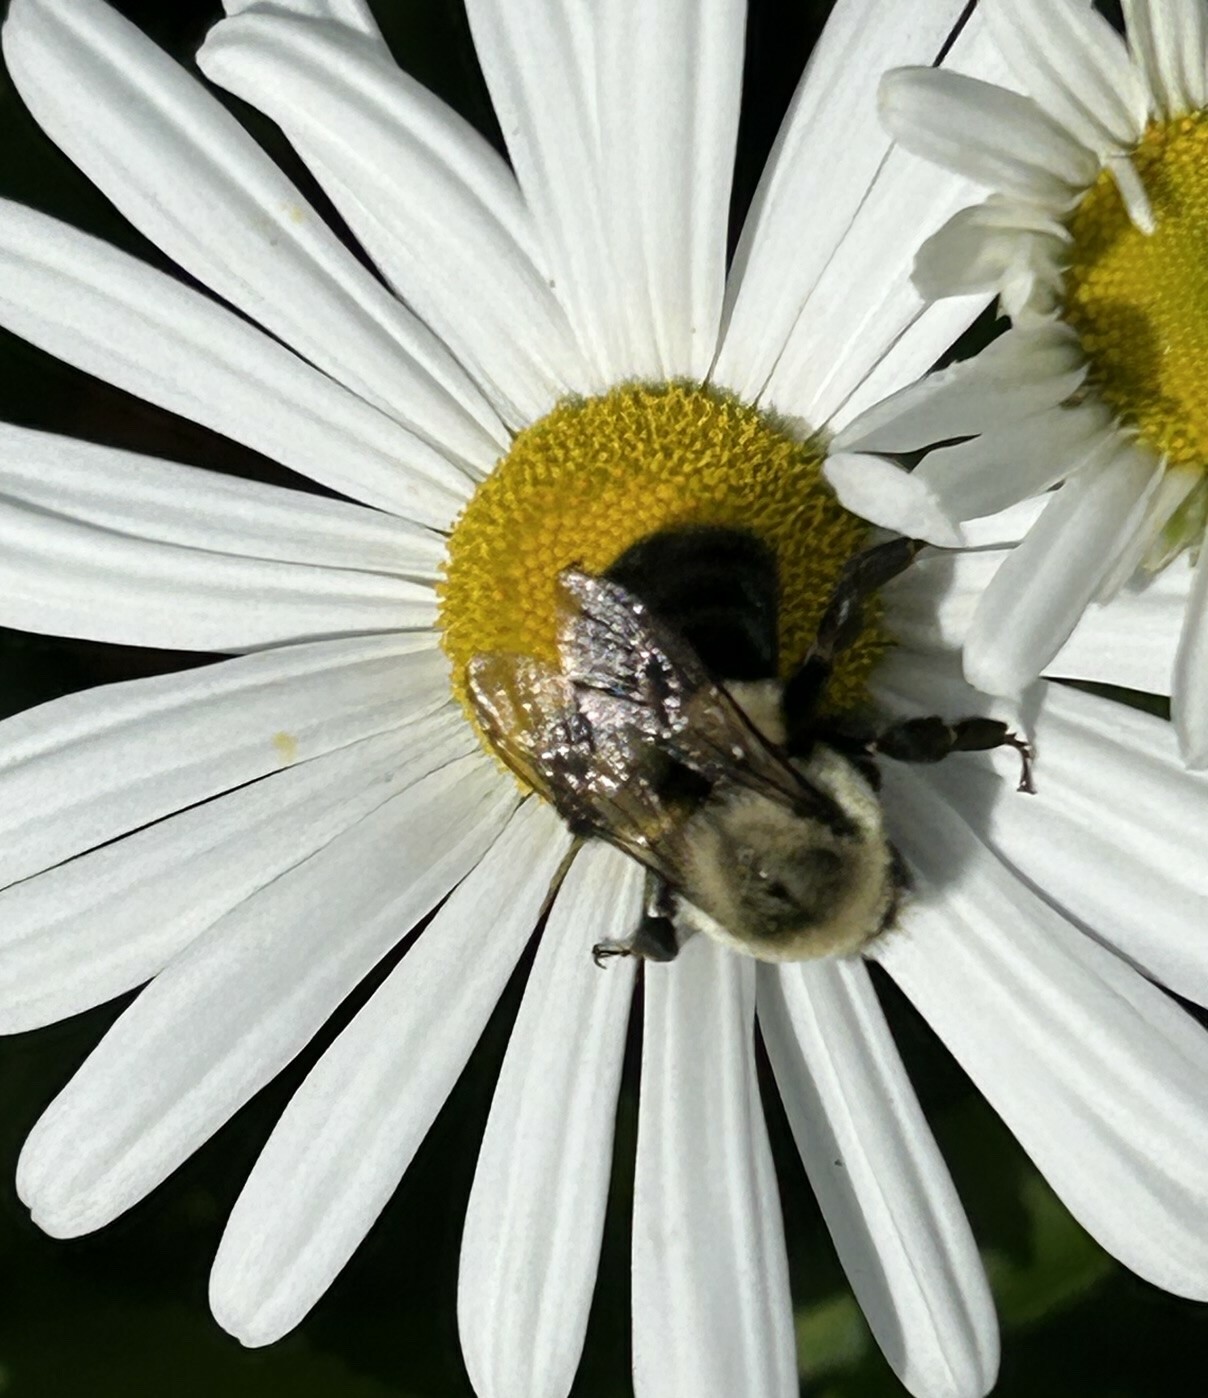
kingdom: Animalia
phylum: Arthropoda
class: Insecta
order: Hymenoptera
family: Apidae
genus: Bombus
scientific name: Bombus impatiens
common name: Common eastern bumble bee
